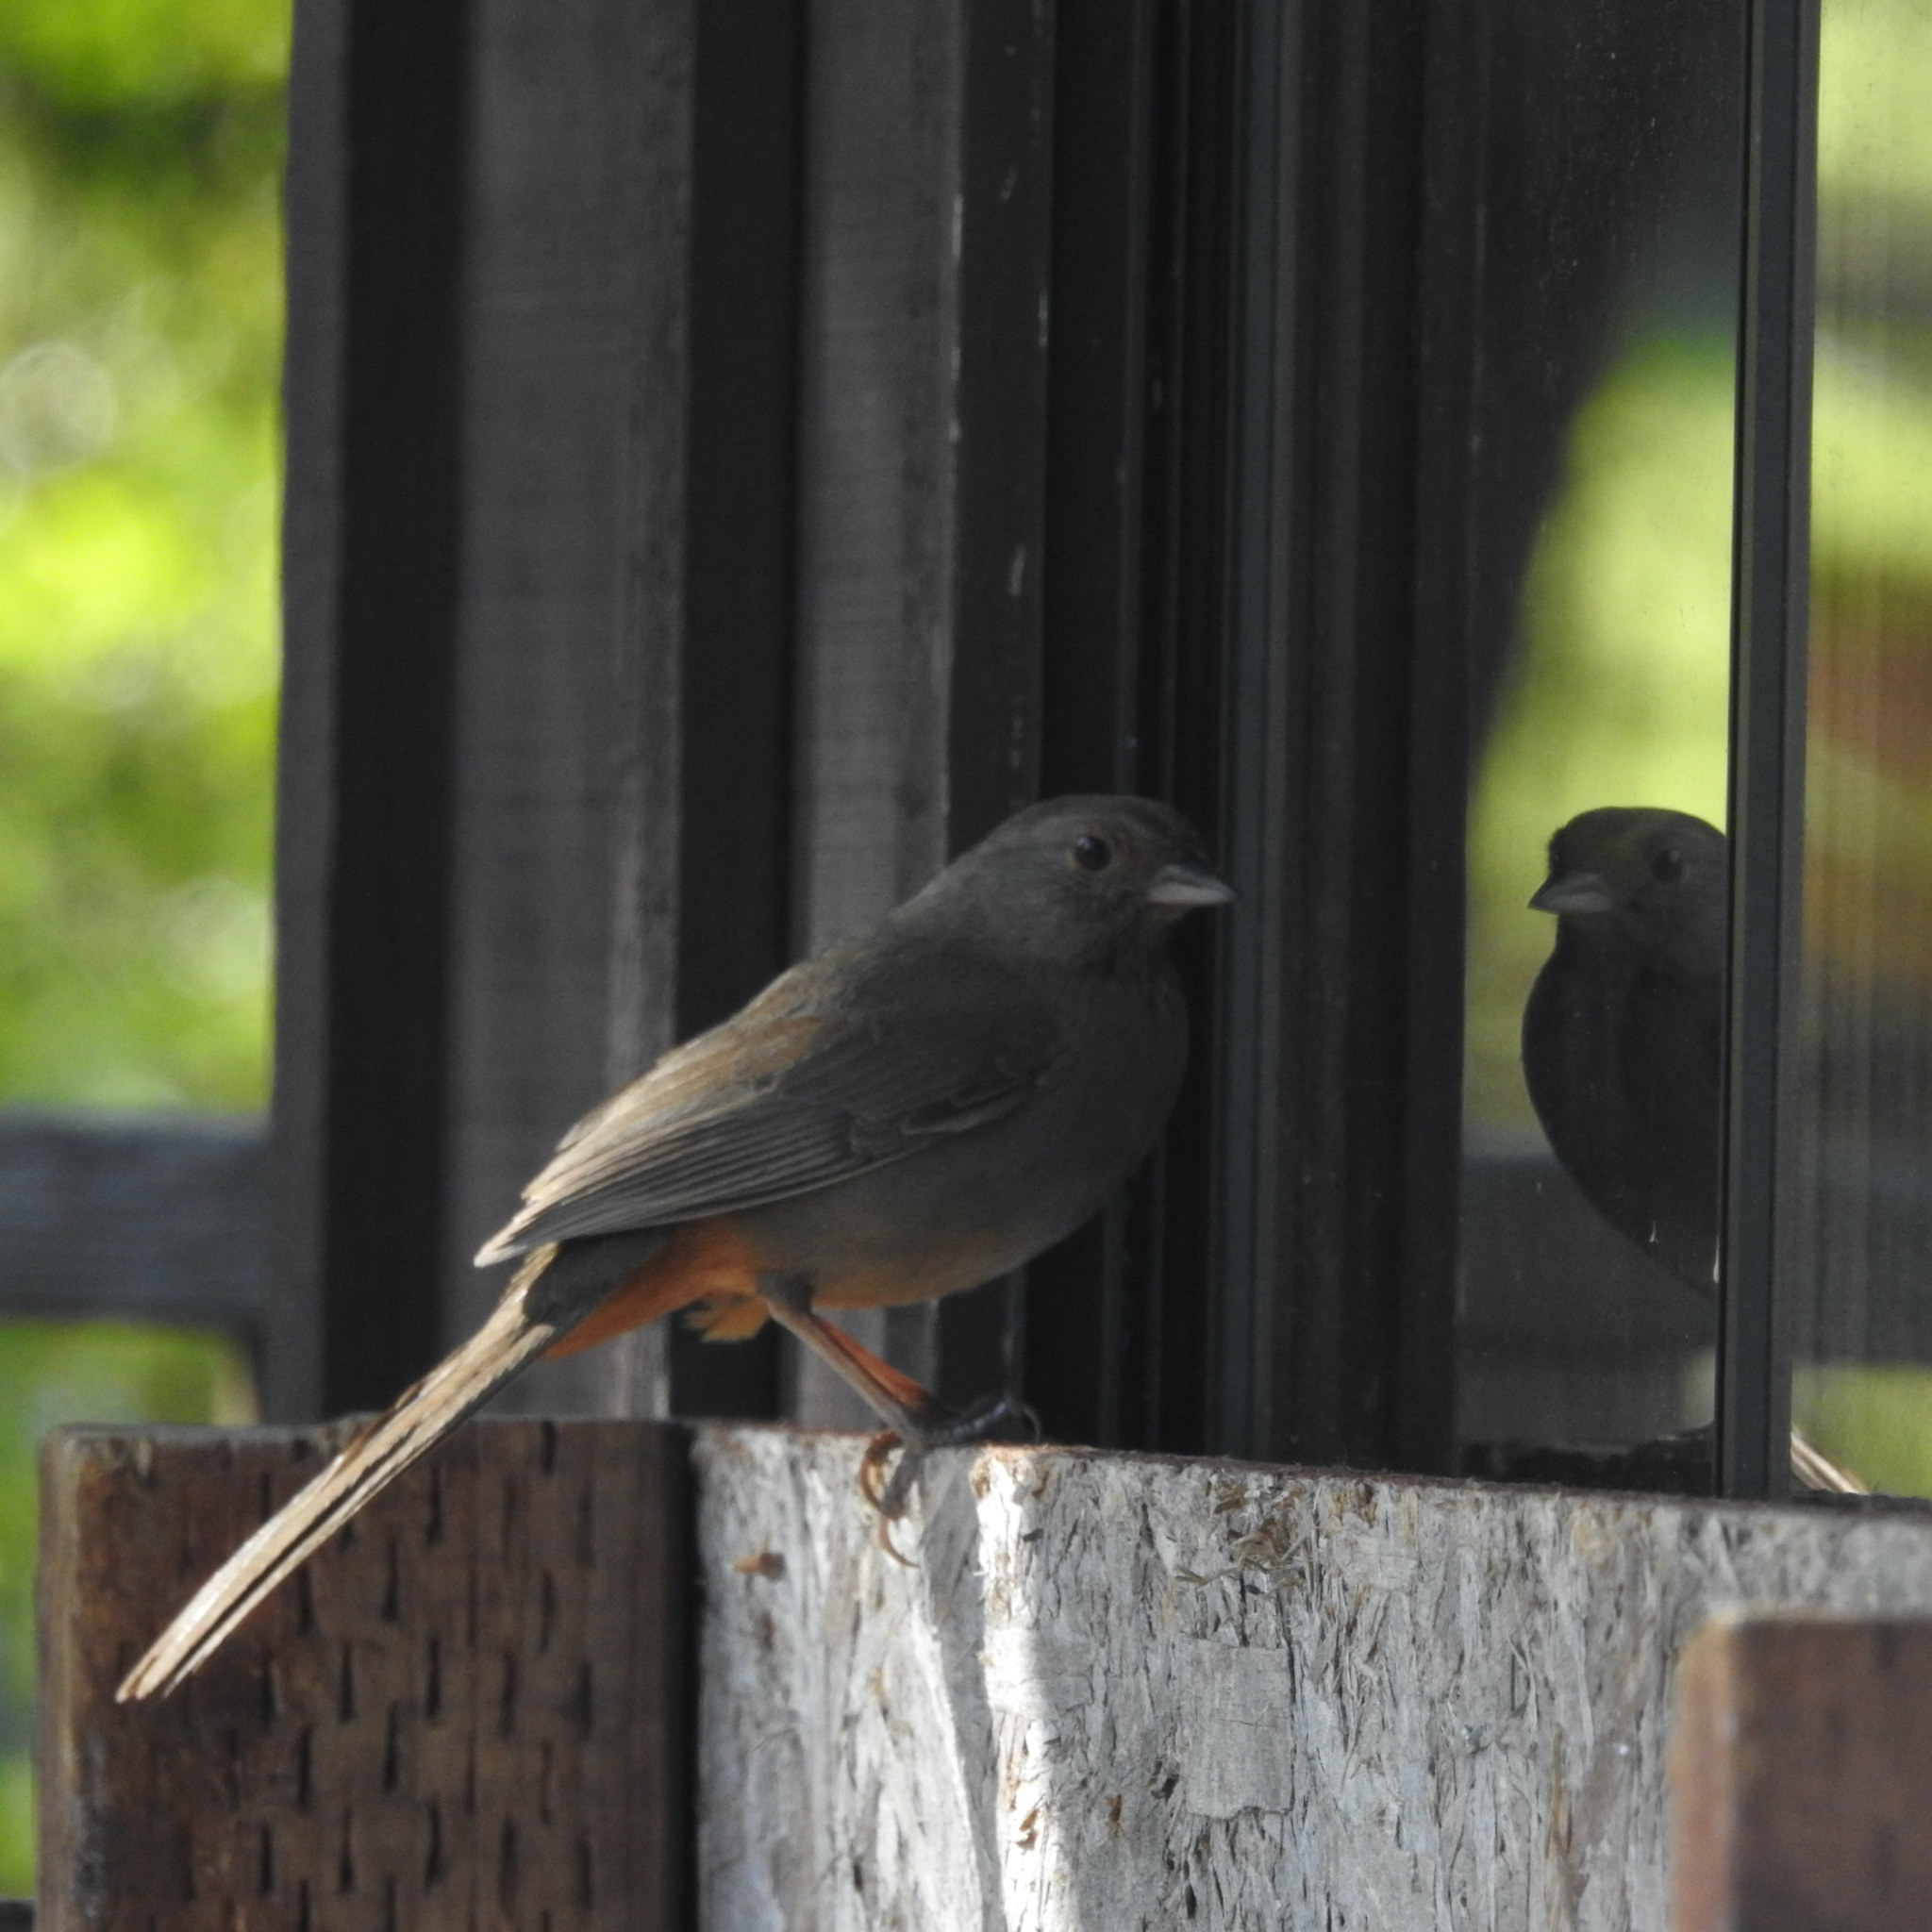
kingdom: Animalia
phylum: Chordata
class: Aves
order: Passeriformes
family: Passerellidae
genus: Melozone
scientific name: Melozone crissalis
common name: California towhee
